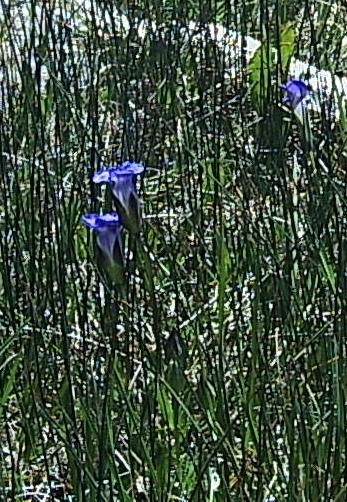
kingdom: Plantae
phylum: Tracheophyta
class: Magnoliopsida
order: Gentianales
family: Gentianaceae
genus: Gentianopsis
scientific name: Gentianopsis thermalis
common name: Rocky mountain fringed-gentian
